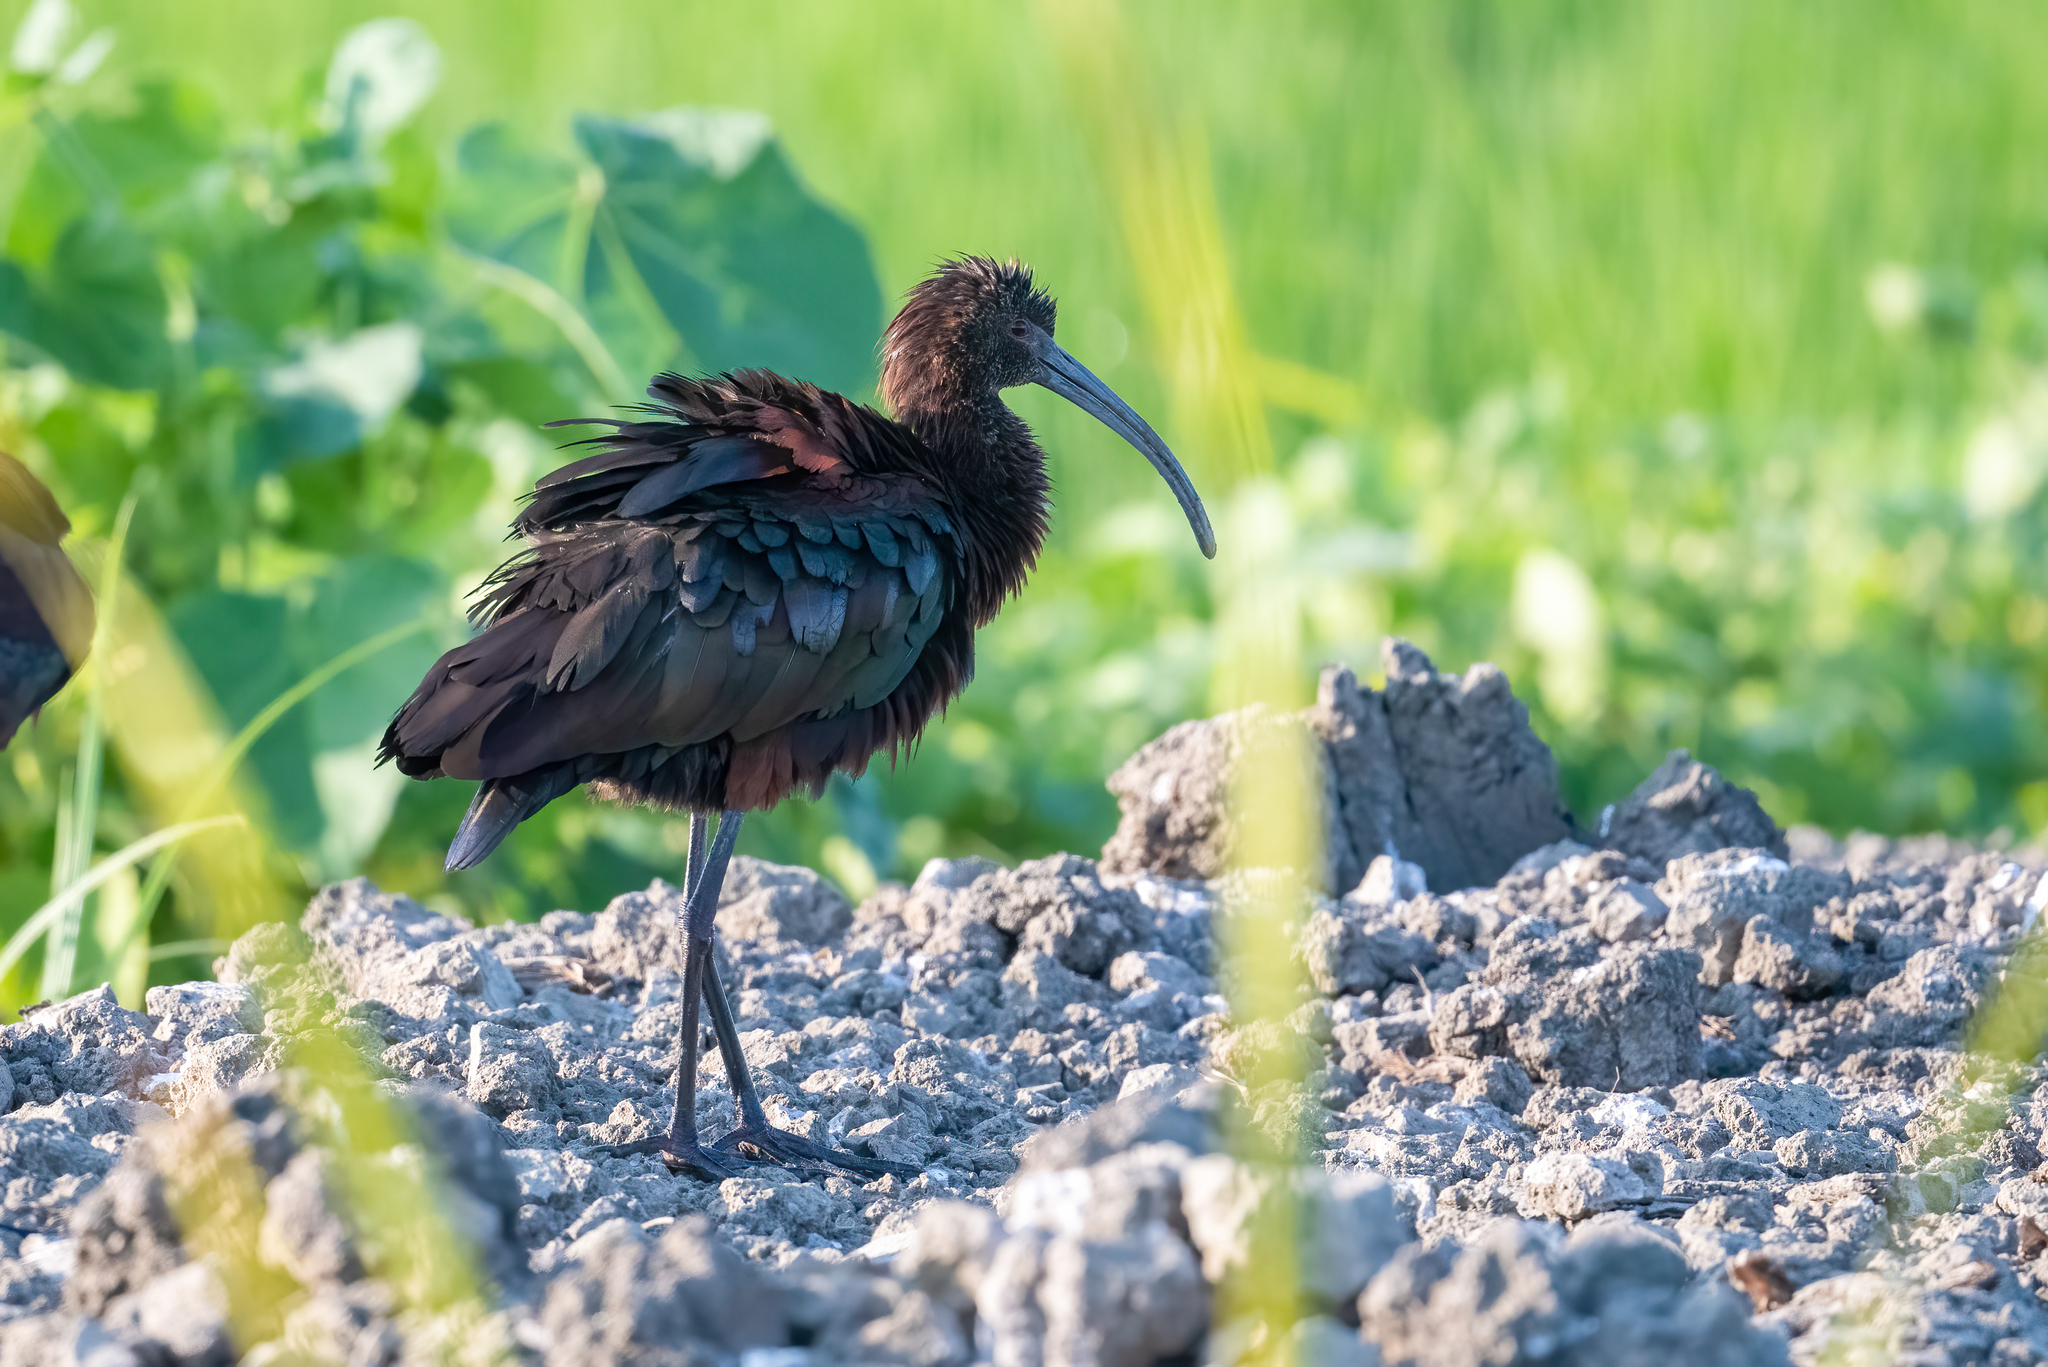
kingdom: Animalia
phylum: Chordata
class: Aves
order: Pelecaniformes
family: Threskiornithidae
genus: Plegadis
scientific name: Plegadis chihi
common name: White-faced ibis
